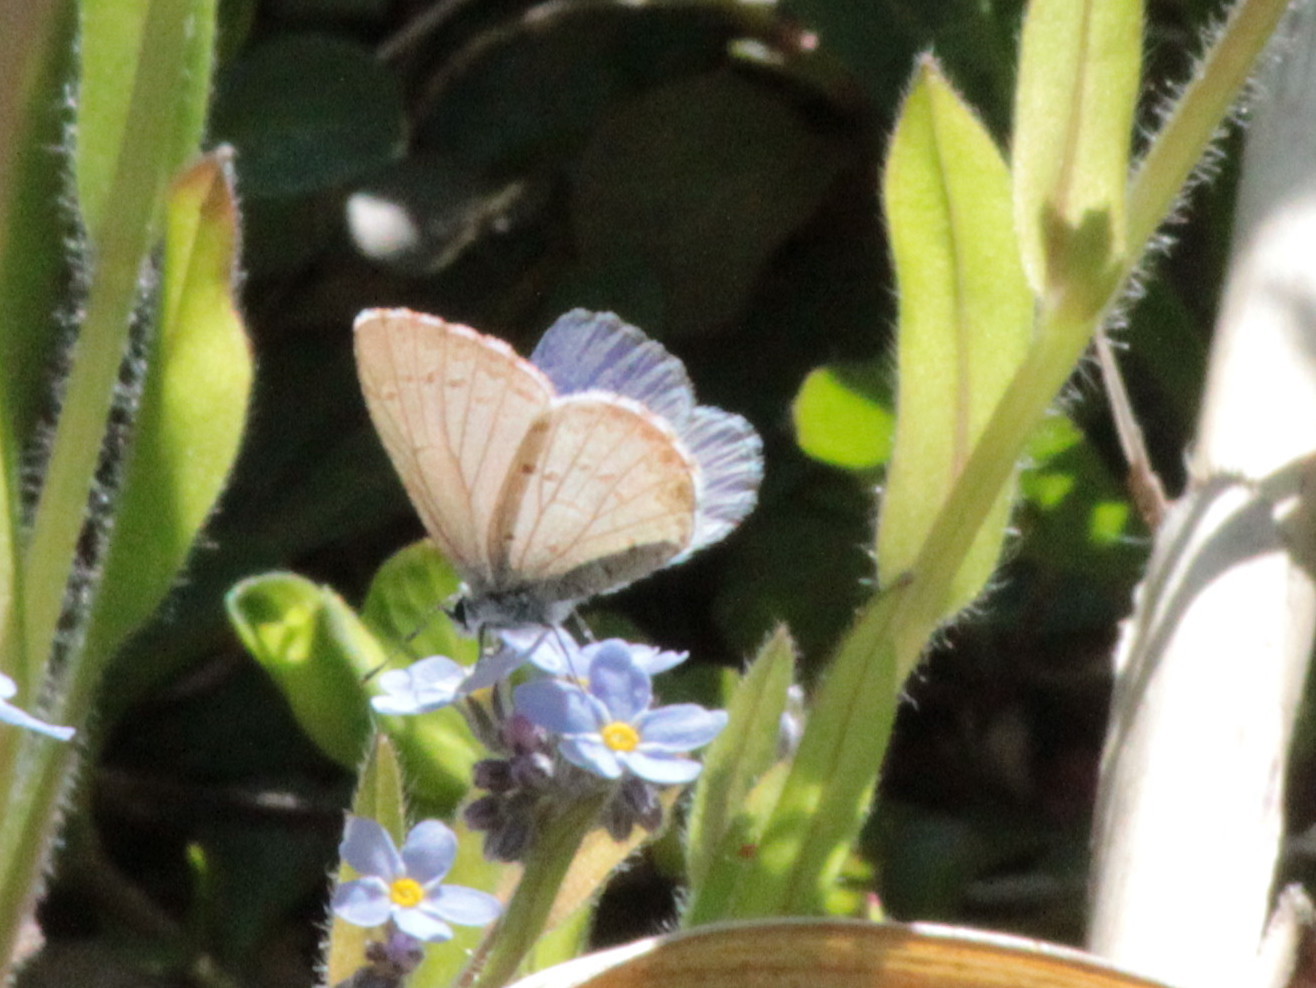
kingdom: Animalia
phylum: Arthropoda
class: Insecta
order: Lepidoptera
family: Lycaenidae
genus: Celastrina
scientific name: Celastrina lucia
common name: Lucia azure
